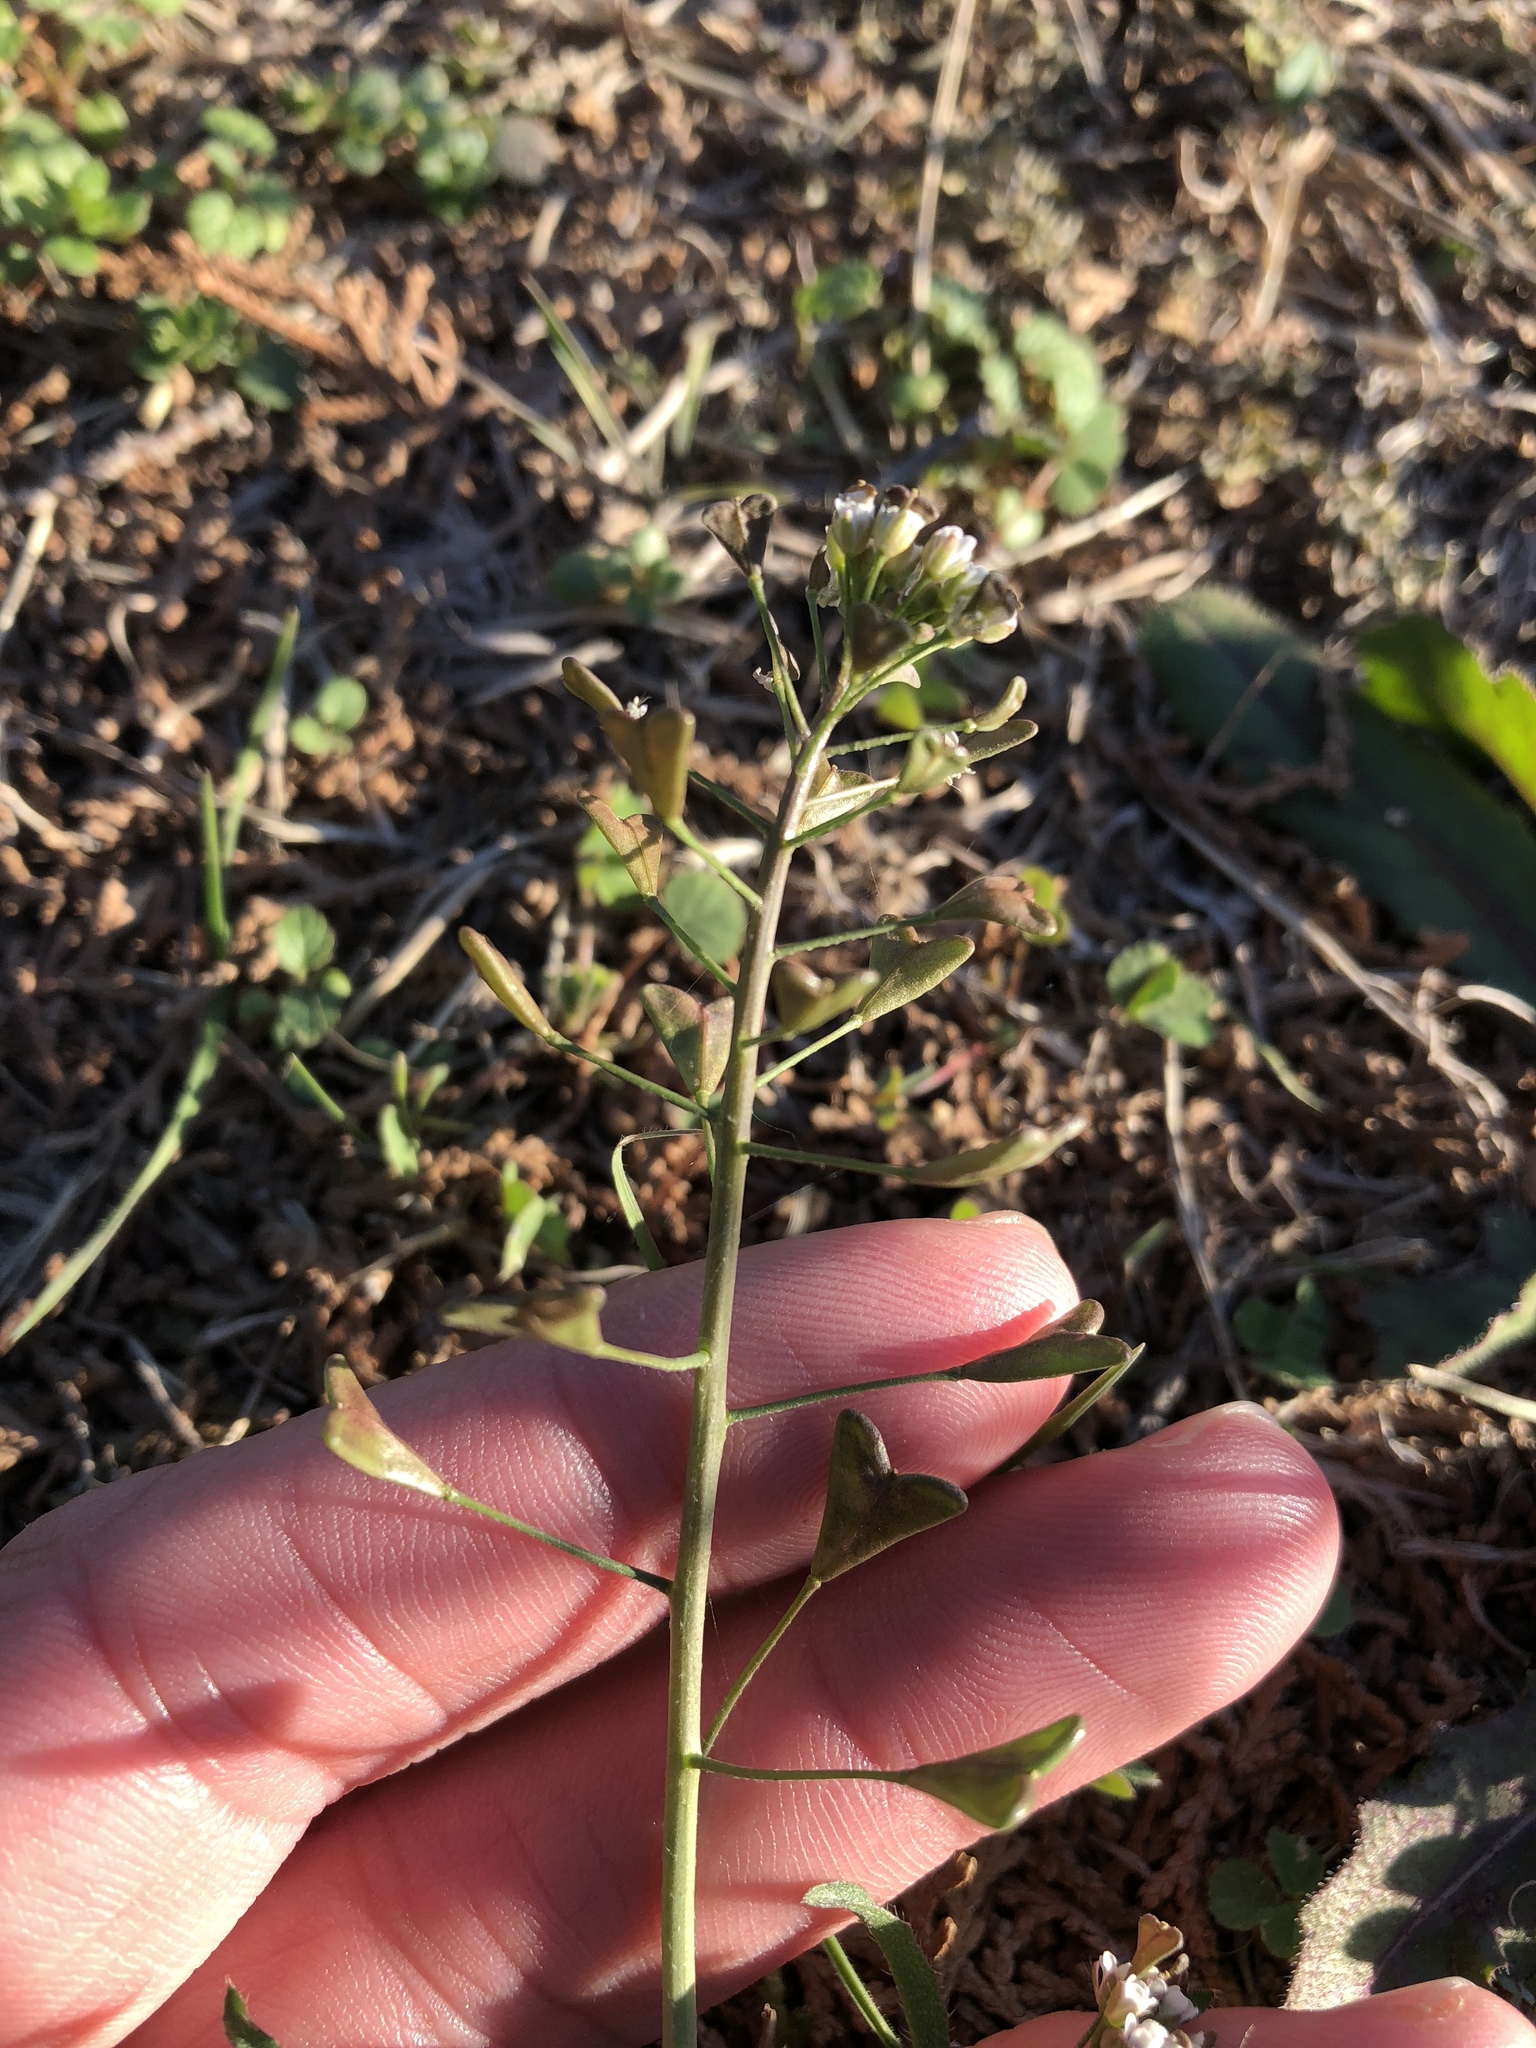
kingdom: Plantae
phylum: Tracheophyta
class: Magnoliopsida
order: Brassicales
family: Brassicaceae
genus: Capsella
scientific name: Capsella bursa-pastoris
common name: Shepherd's purse
